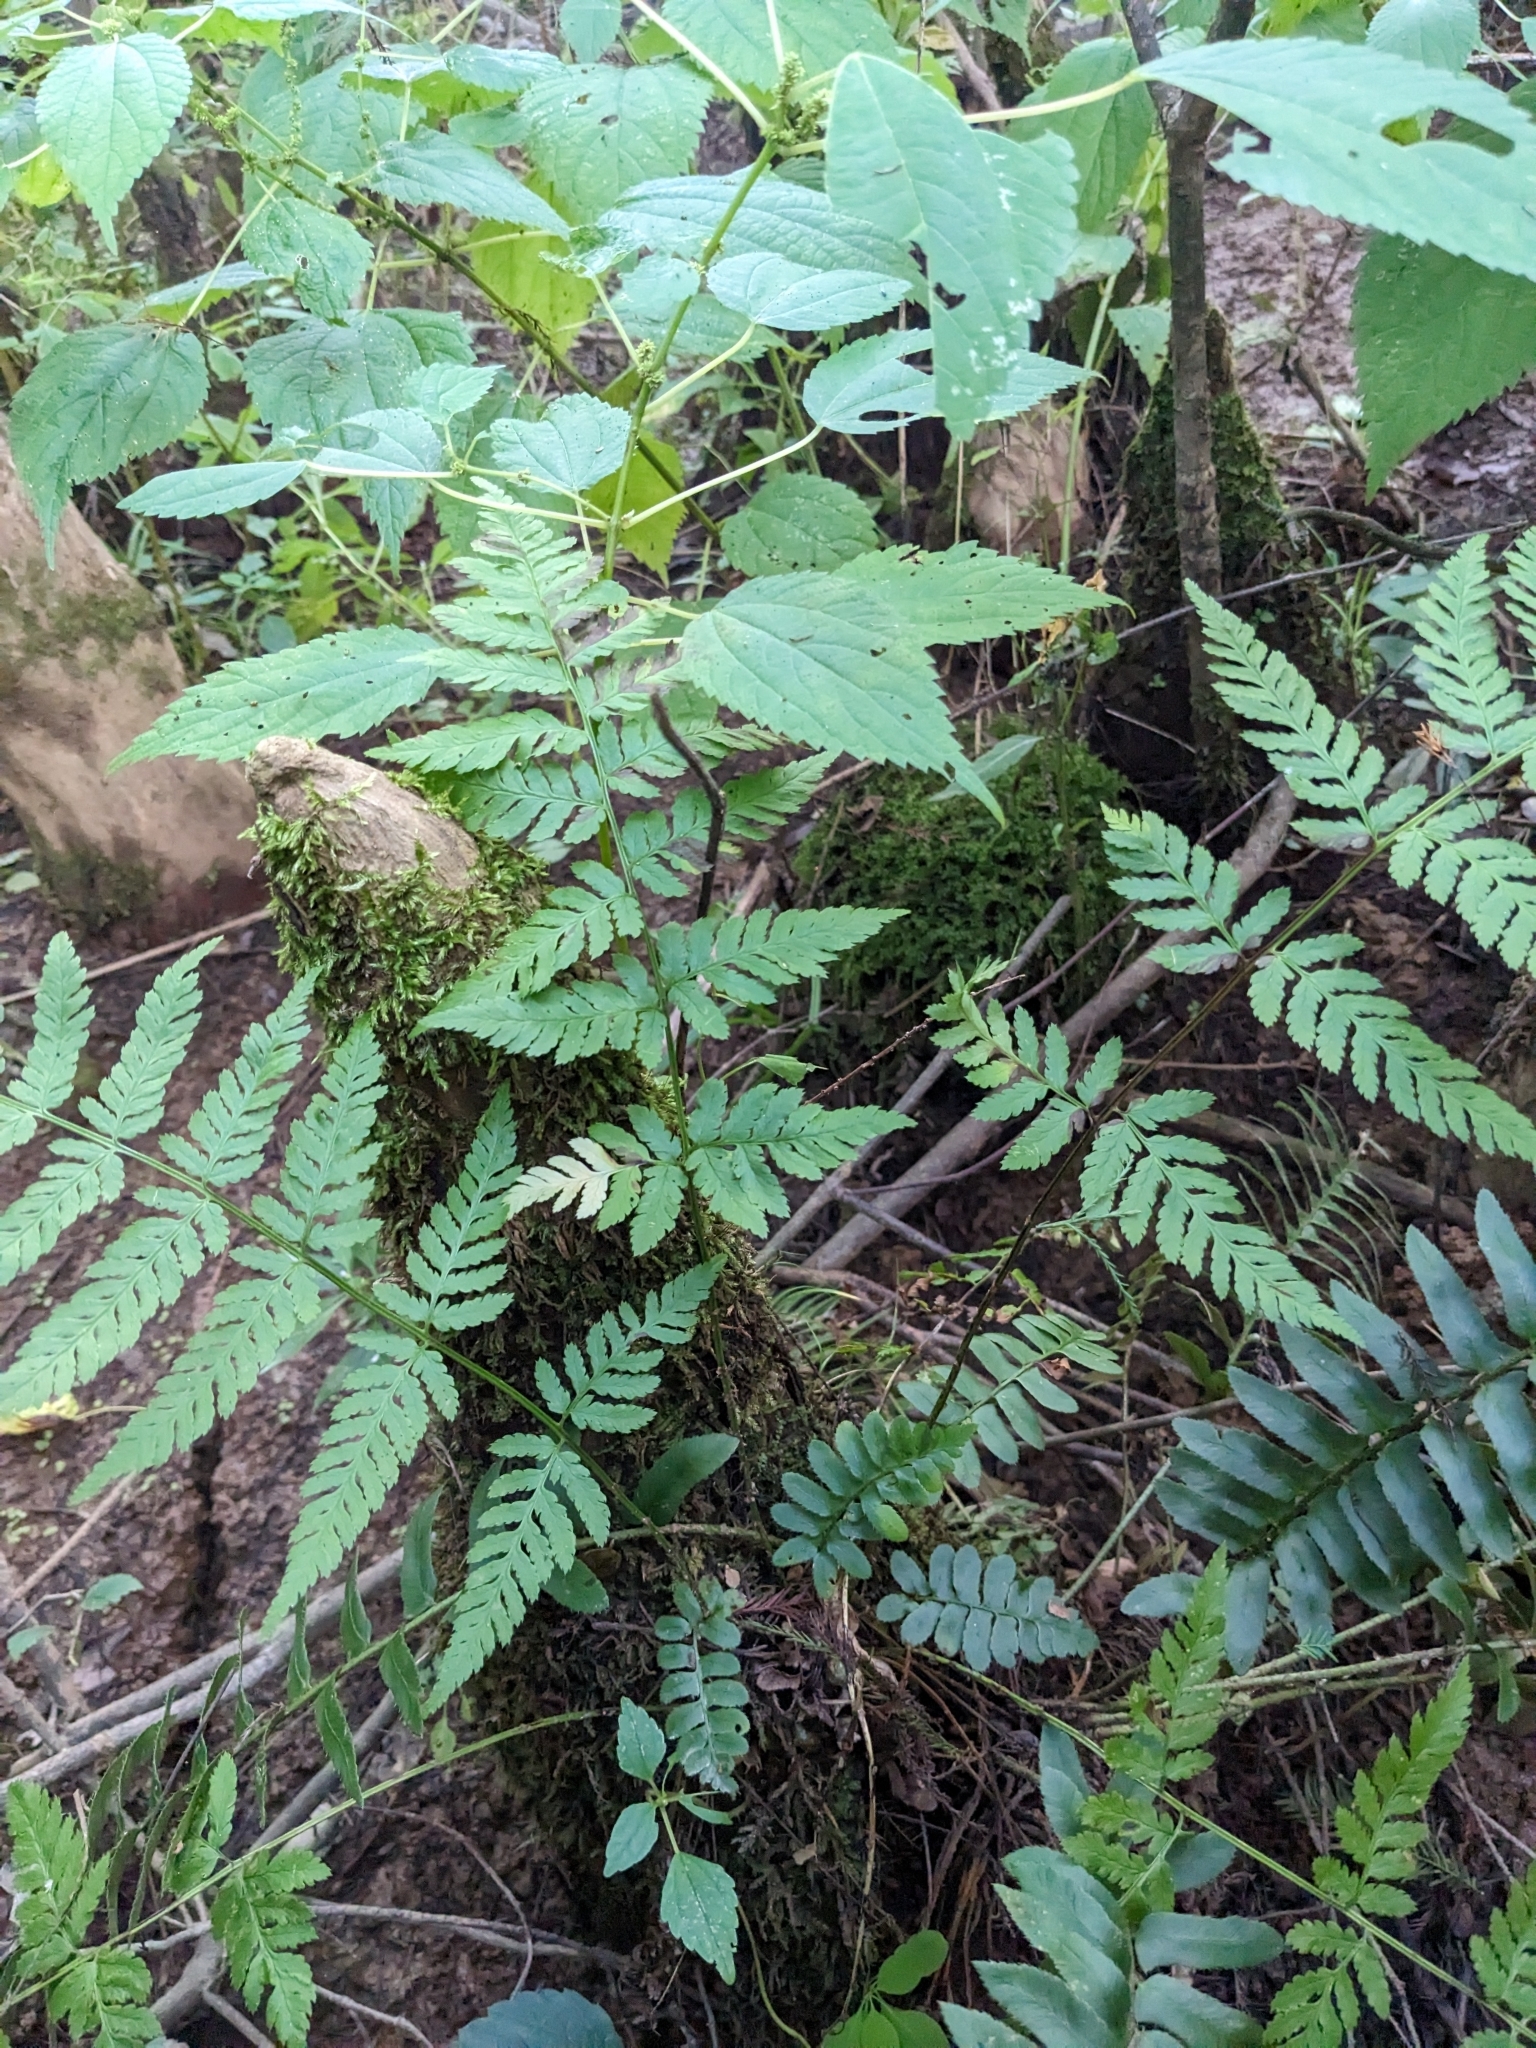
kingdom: Plantae
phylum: Tracheophyta
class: Polypodiopsida
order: Polypodiales
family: Dryopteridaceae
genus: Dryopteris
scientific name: Dryopteris carthusiana
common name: Narrow buckler-fern
